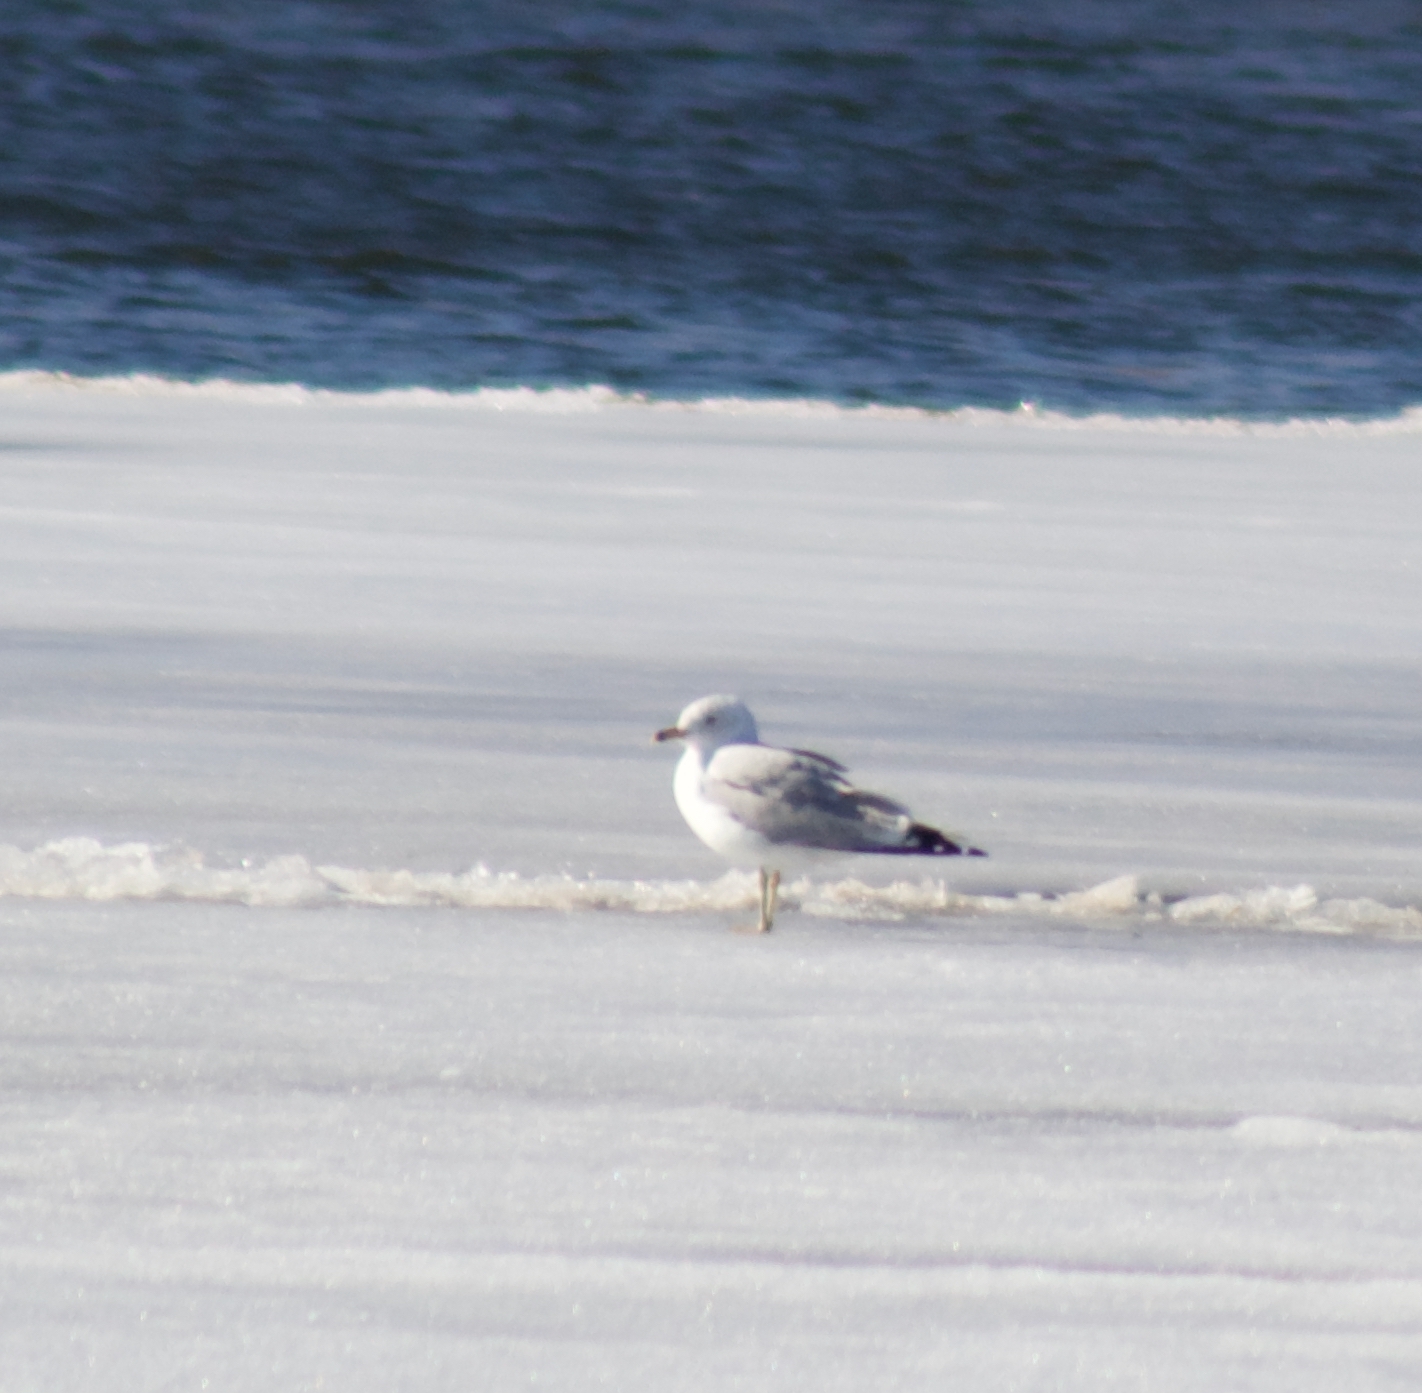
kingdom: Animalia
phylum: Chordata
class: Aves
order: Charadriiformes
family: Laridae
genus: Larus
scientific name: Larus delawarensis
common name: Ring-billed gull
